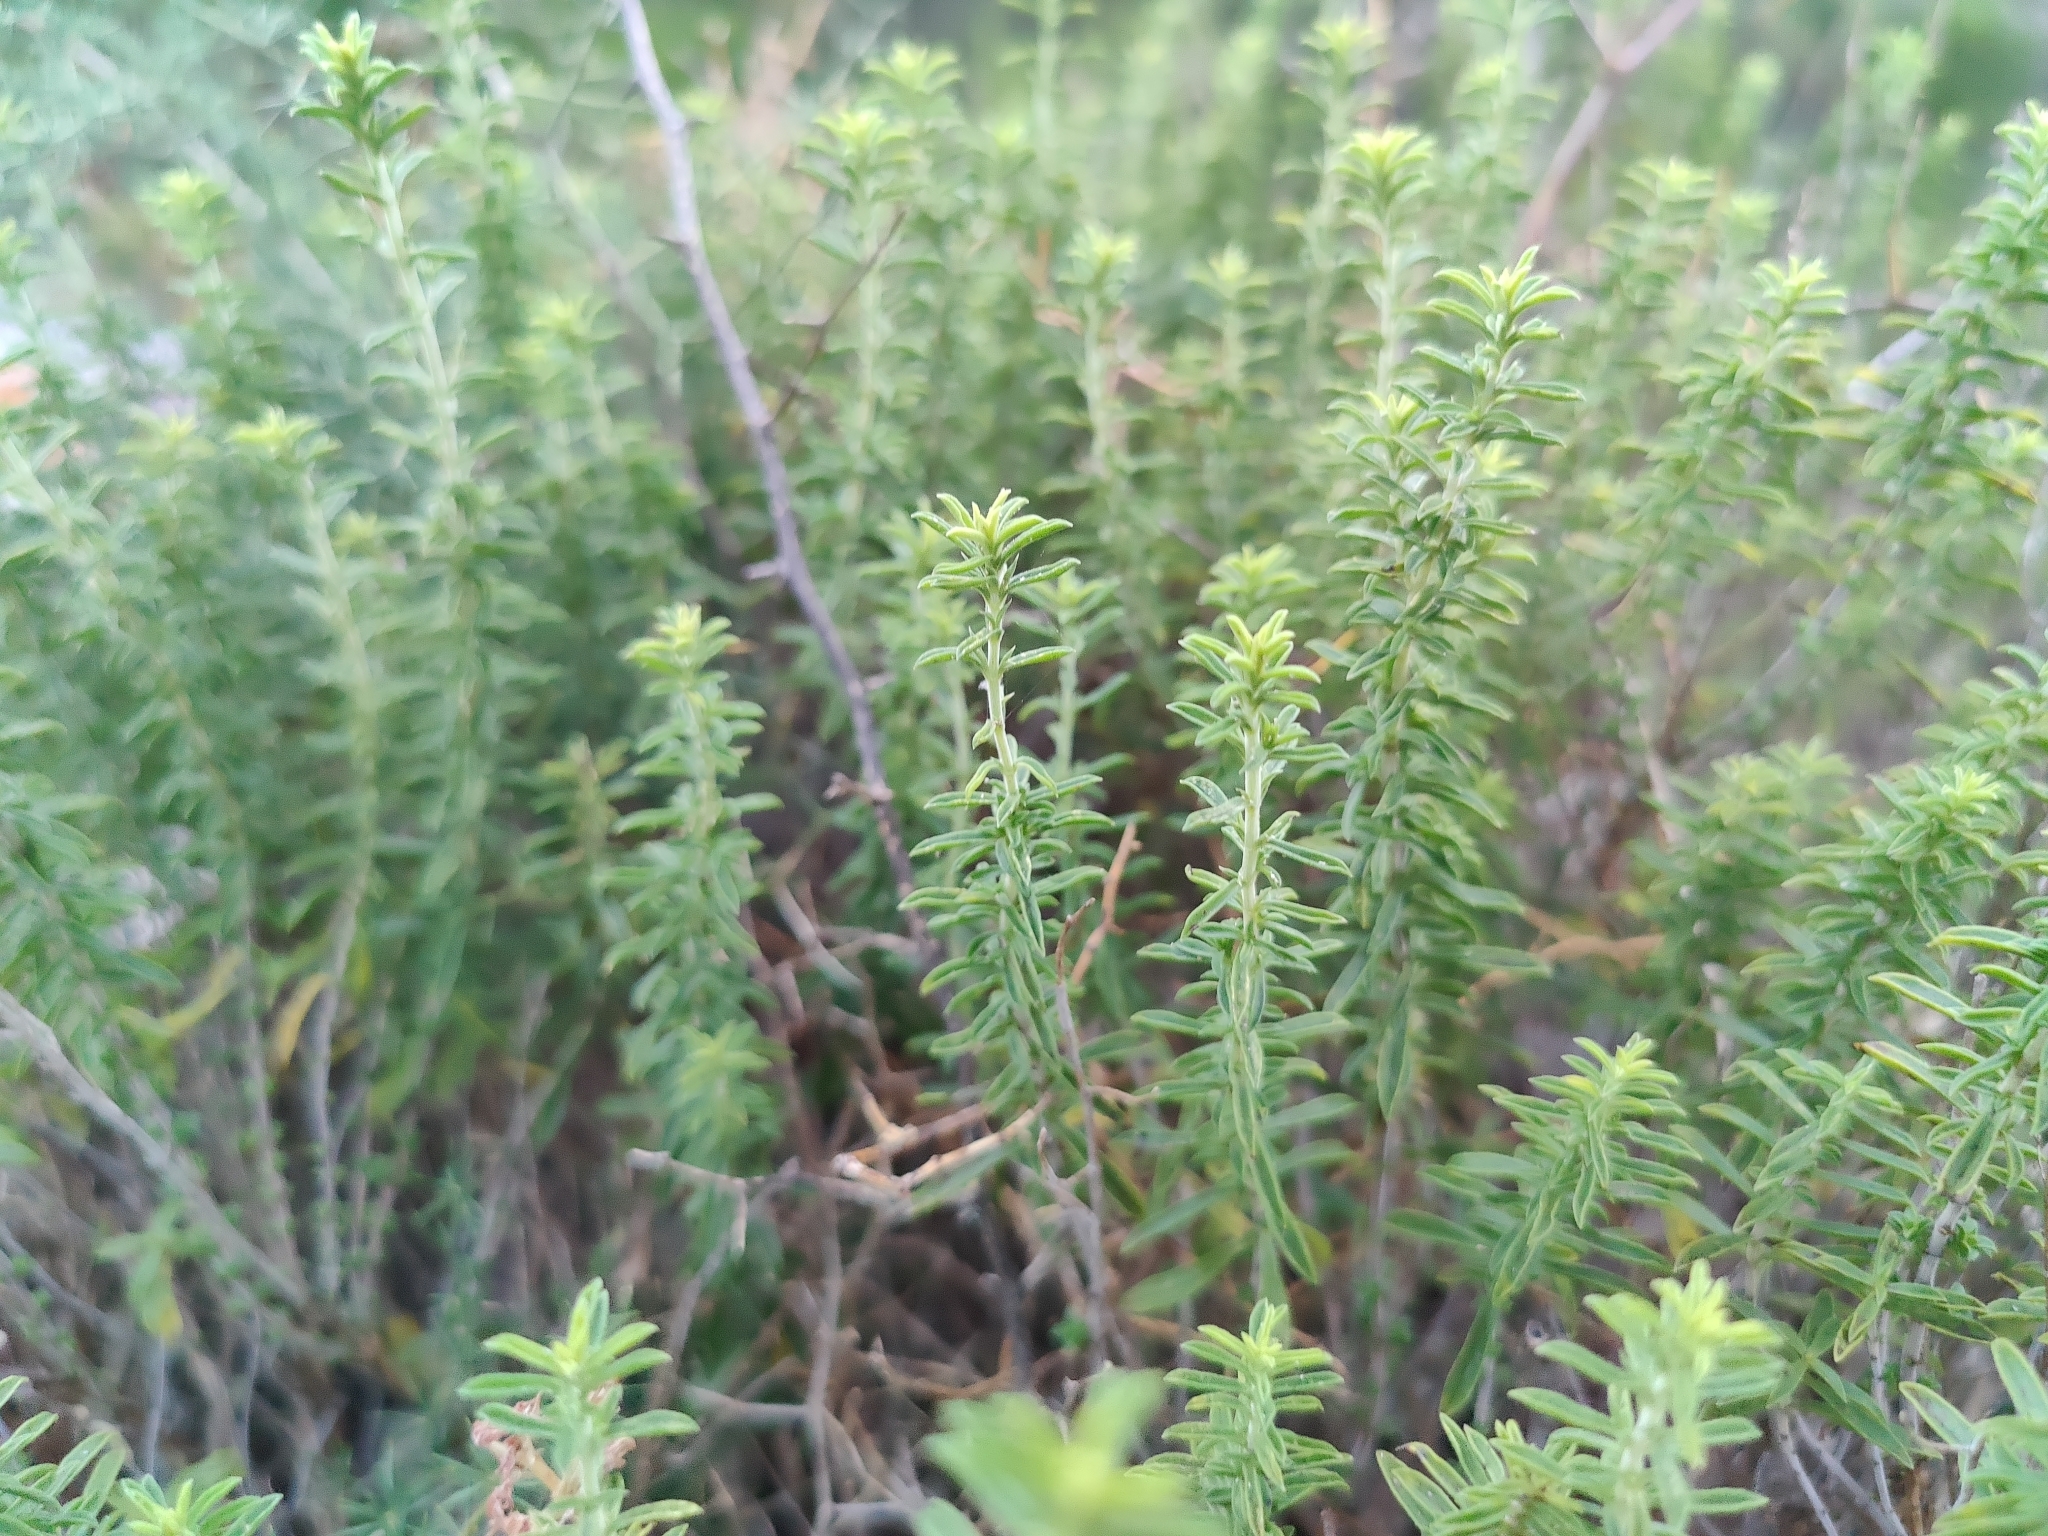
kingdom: Plantae
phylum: Tracheophyta
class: Magnoliopsida
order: Lamiales
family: Lamiaceae
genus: Satureja
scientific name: Satureja montana
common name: Winter savory
